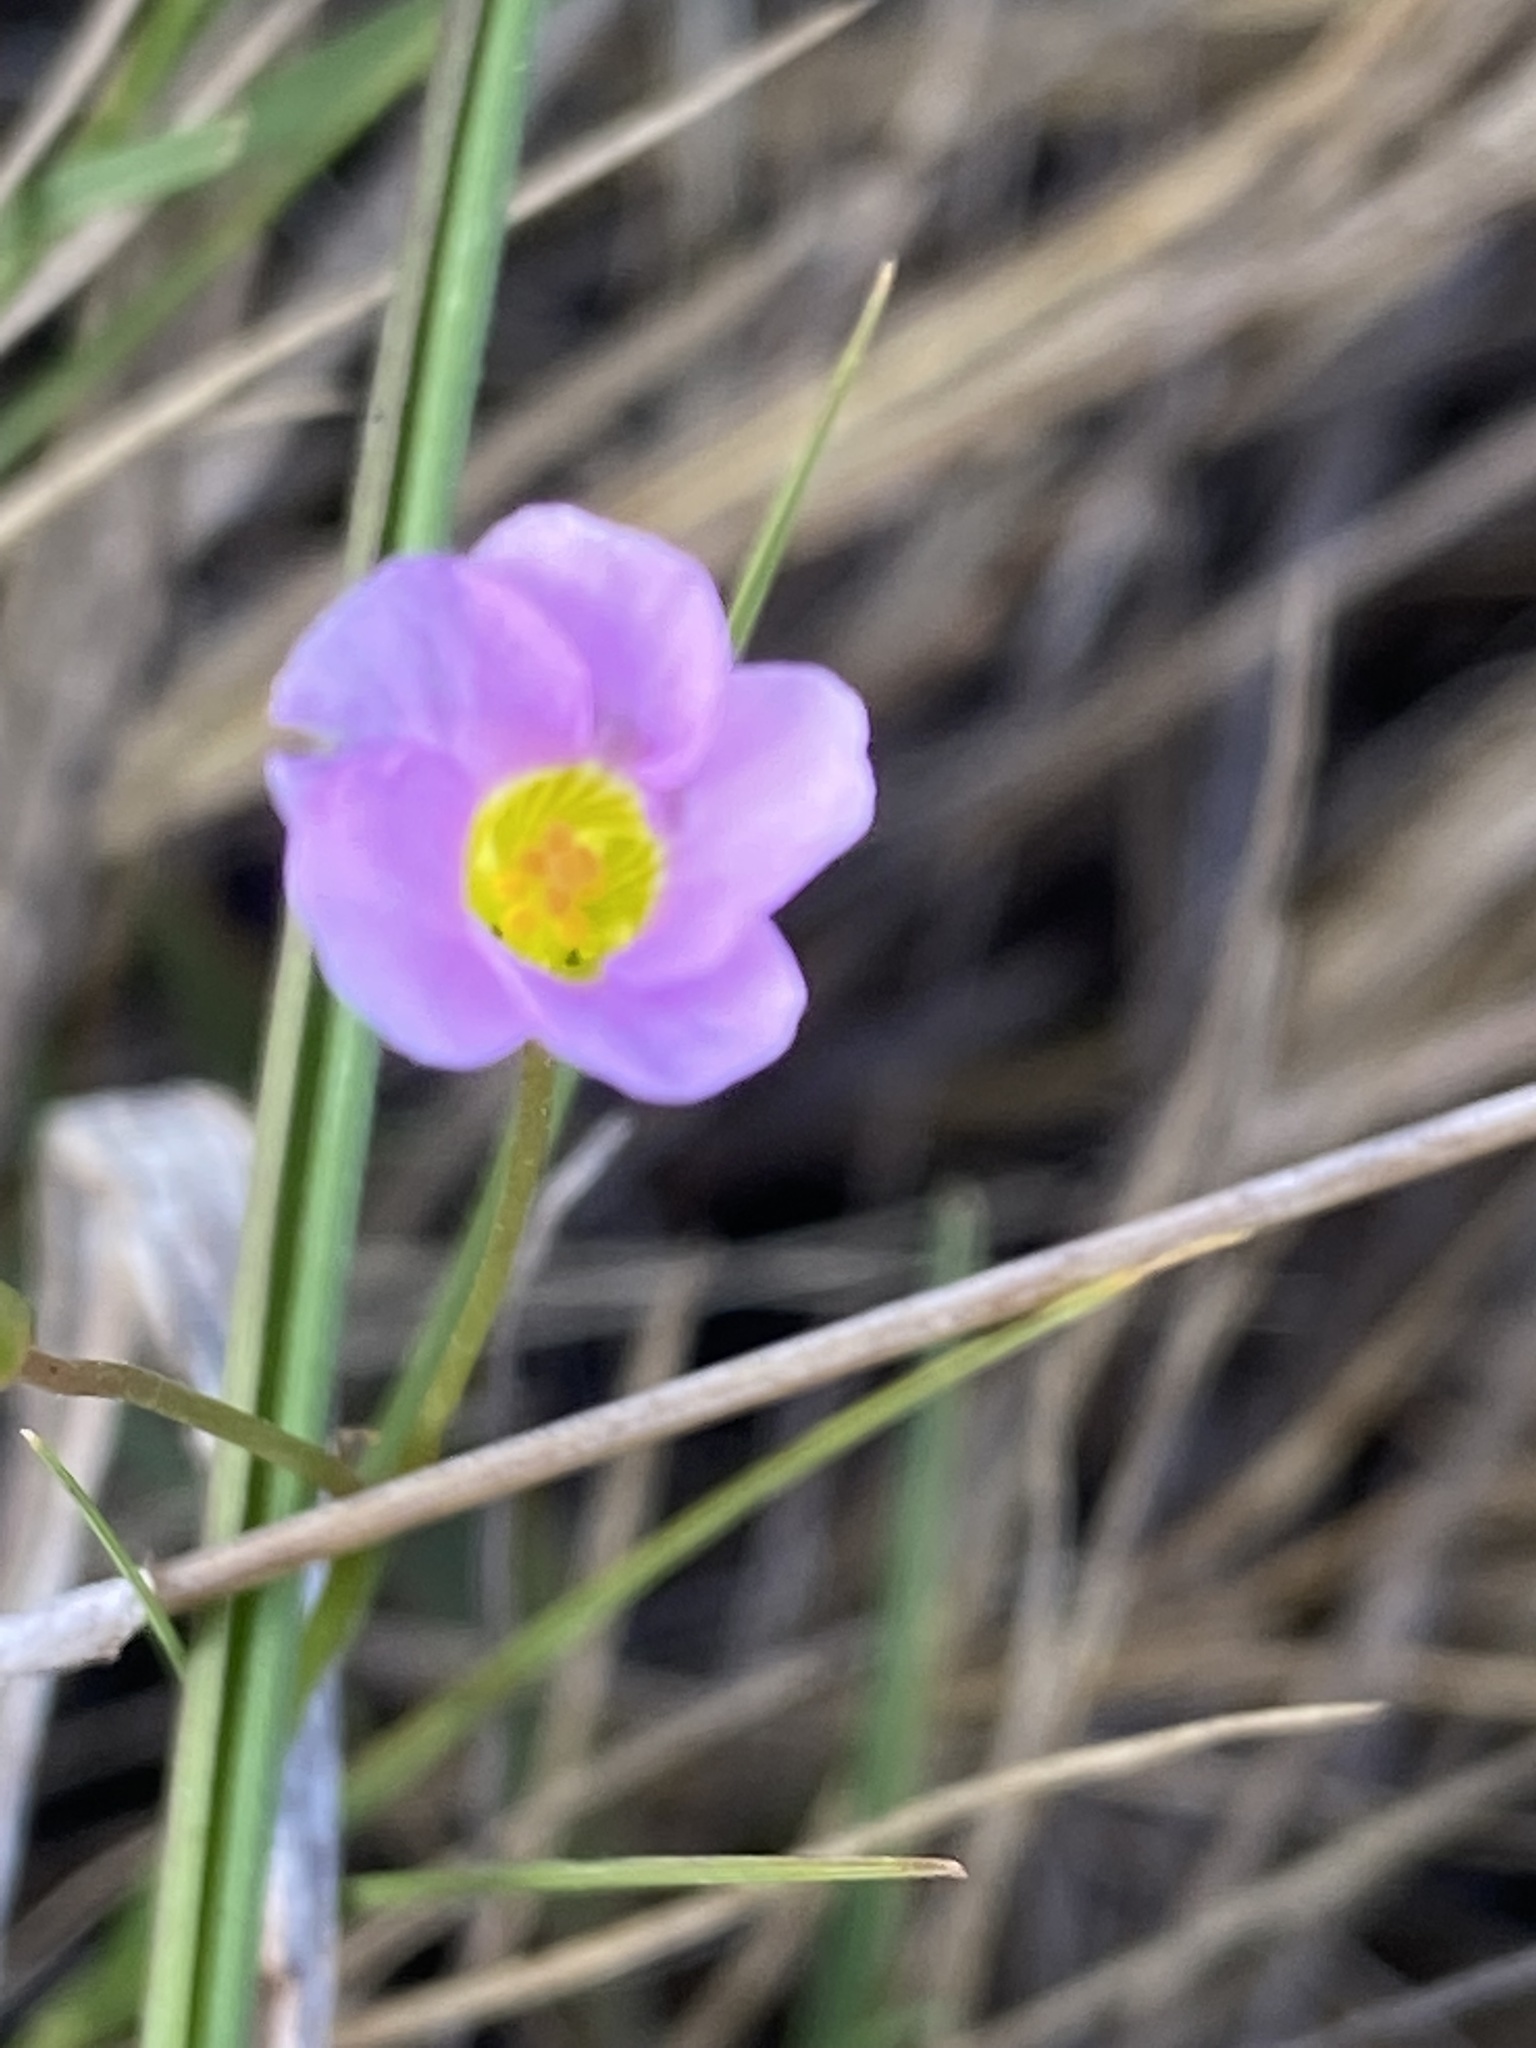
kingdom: Plantae
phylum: Tracheophyta
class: Magnoliopsida
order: Oxalidales
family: Oxalidaceae
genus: Oxalis
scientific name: Oxalis caprina
